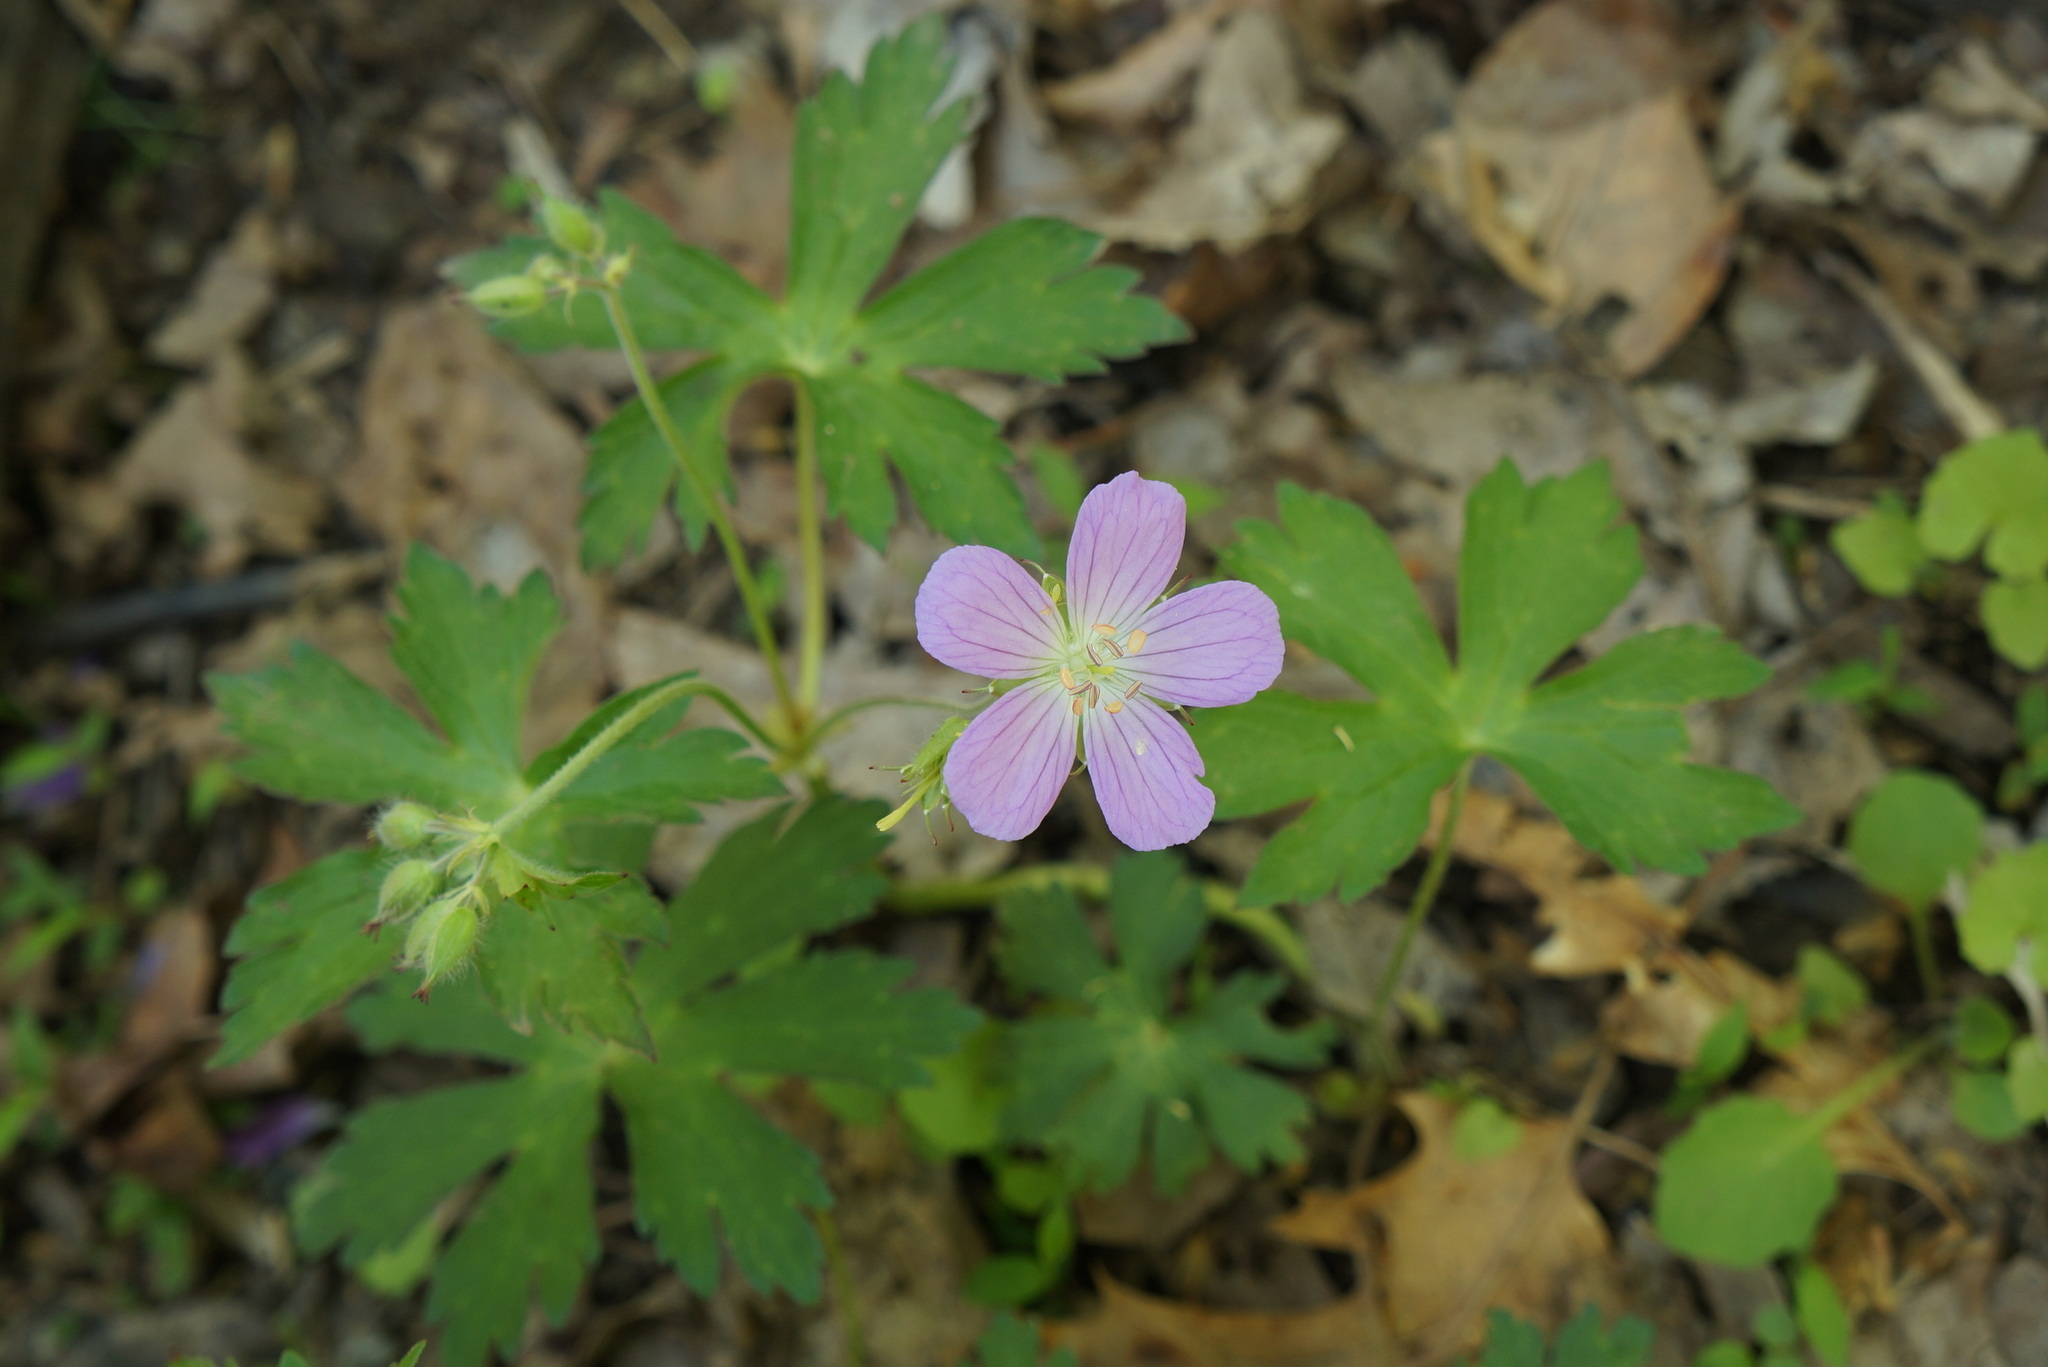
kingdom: Plantae
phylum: Tracheophyta
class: Magnoliopsida
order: Geraniales
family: Geraniaceae
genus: Geranium
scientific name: Geranium maculatum
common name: Spotted geranium
